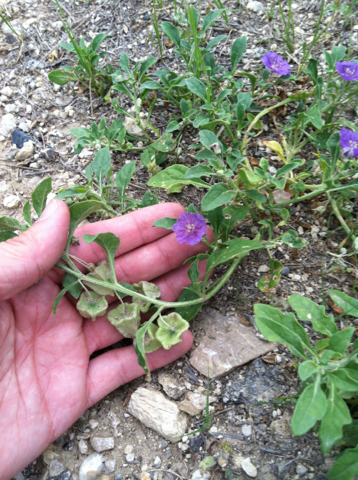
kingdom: Plantae
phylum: Tracheophyta
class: Magnoliopsida
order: Solanales
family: Solanaceae
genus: Quincula
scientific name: Quincula lobata
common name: Purple-ground-cherry
